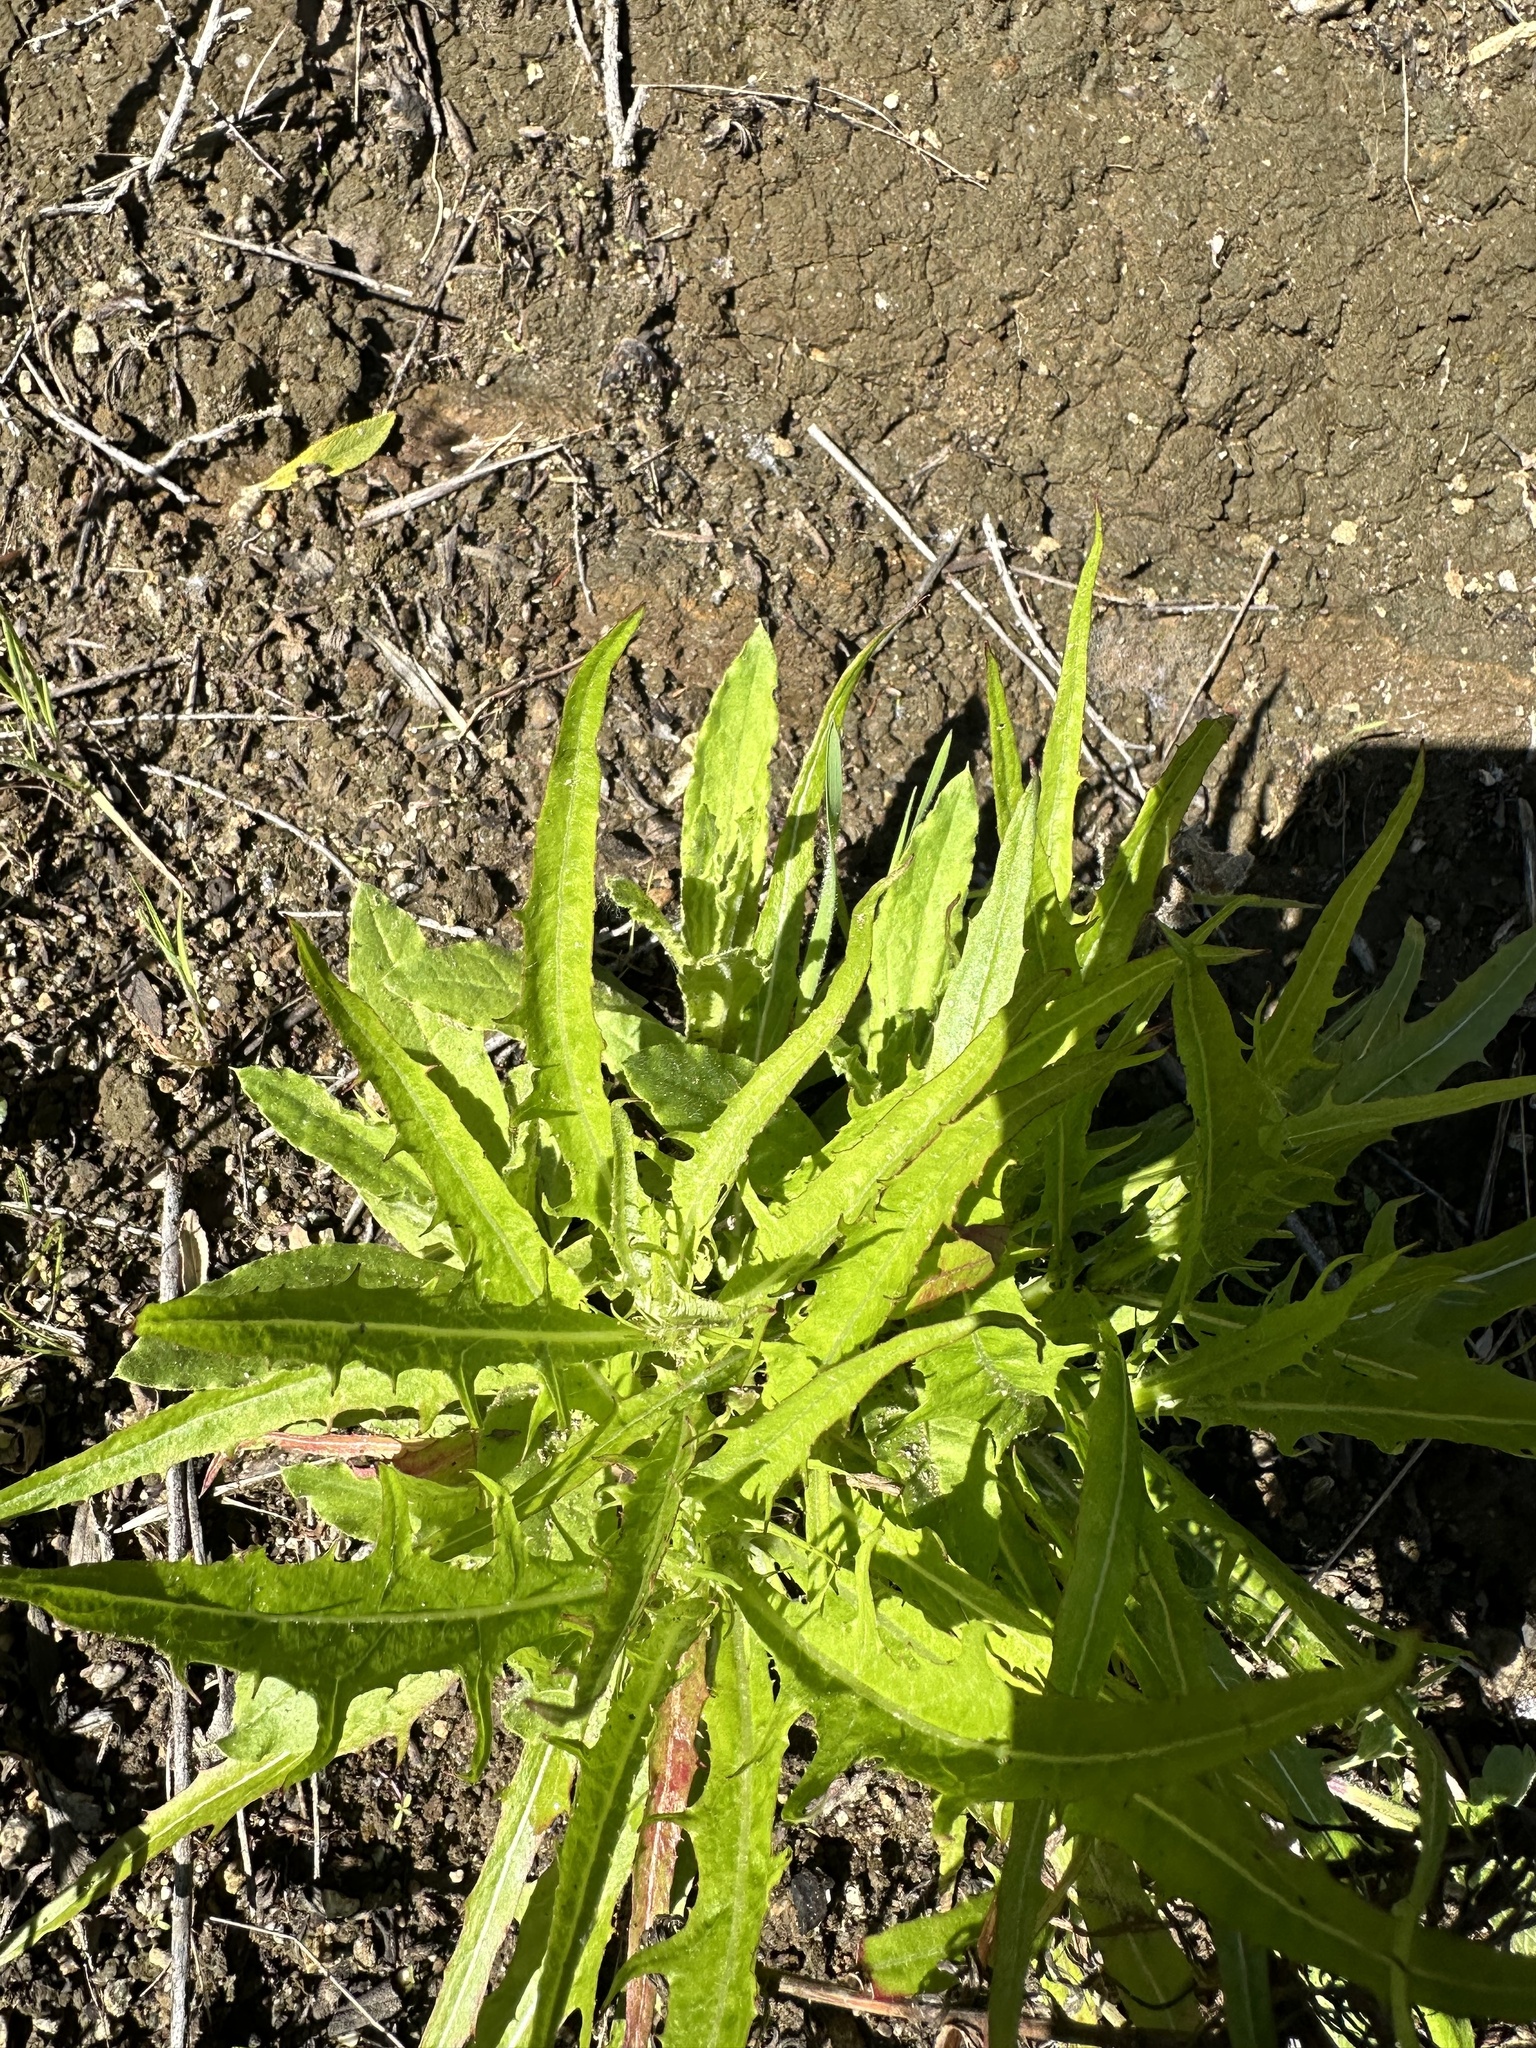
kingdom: Plantae
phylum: Tracheophyta
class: Magnoliopsida
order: Asterales
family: Asteraceae
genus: Malacothrix
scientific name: Malacothrix saxatilis
